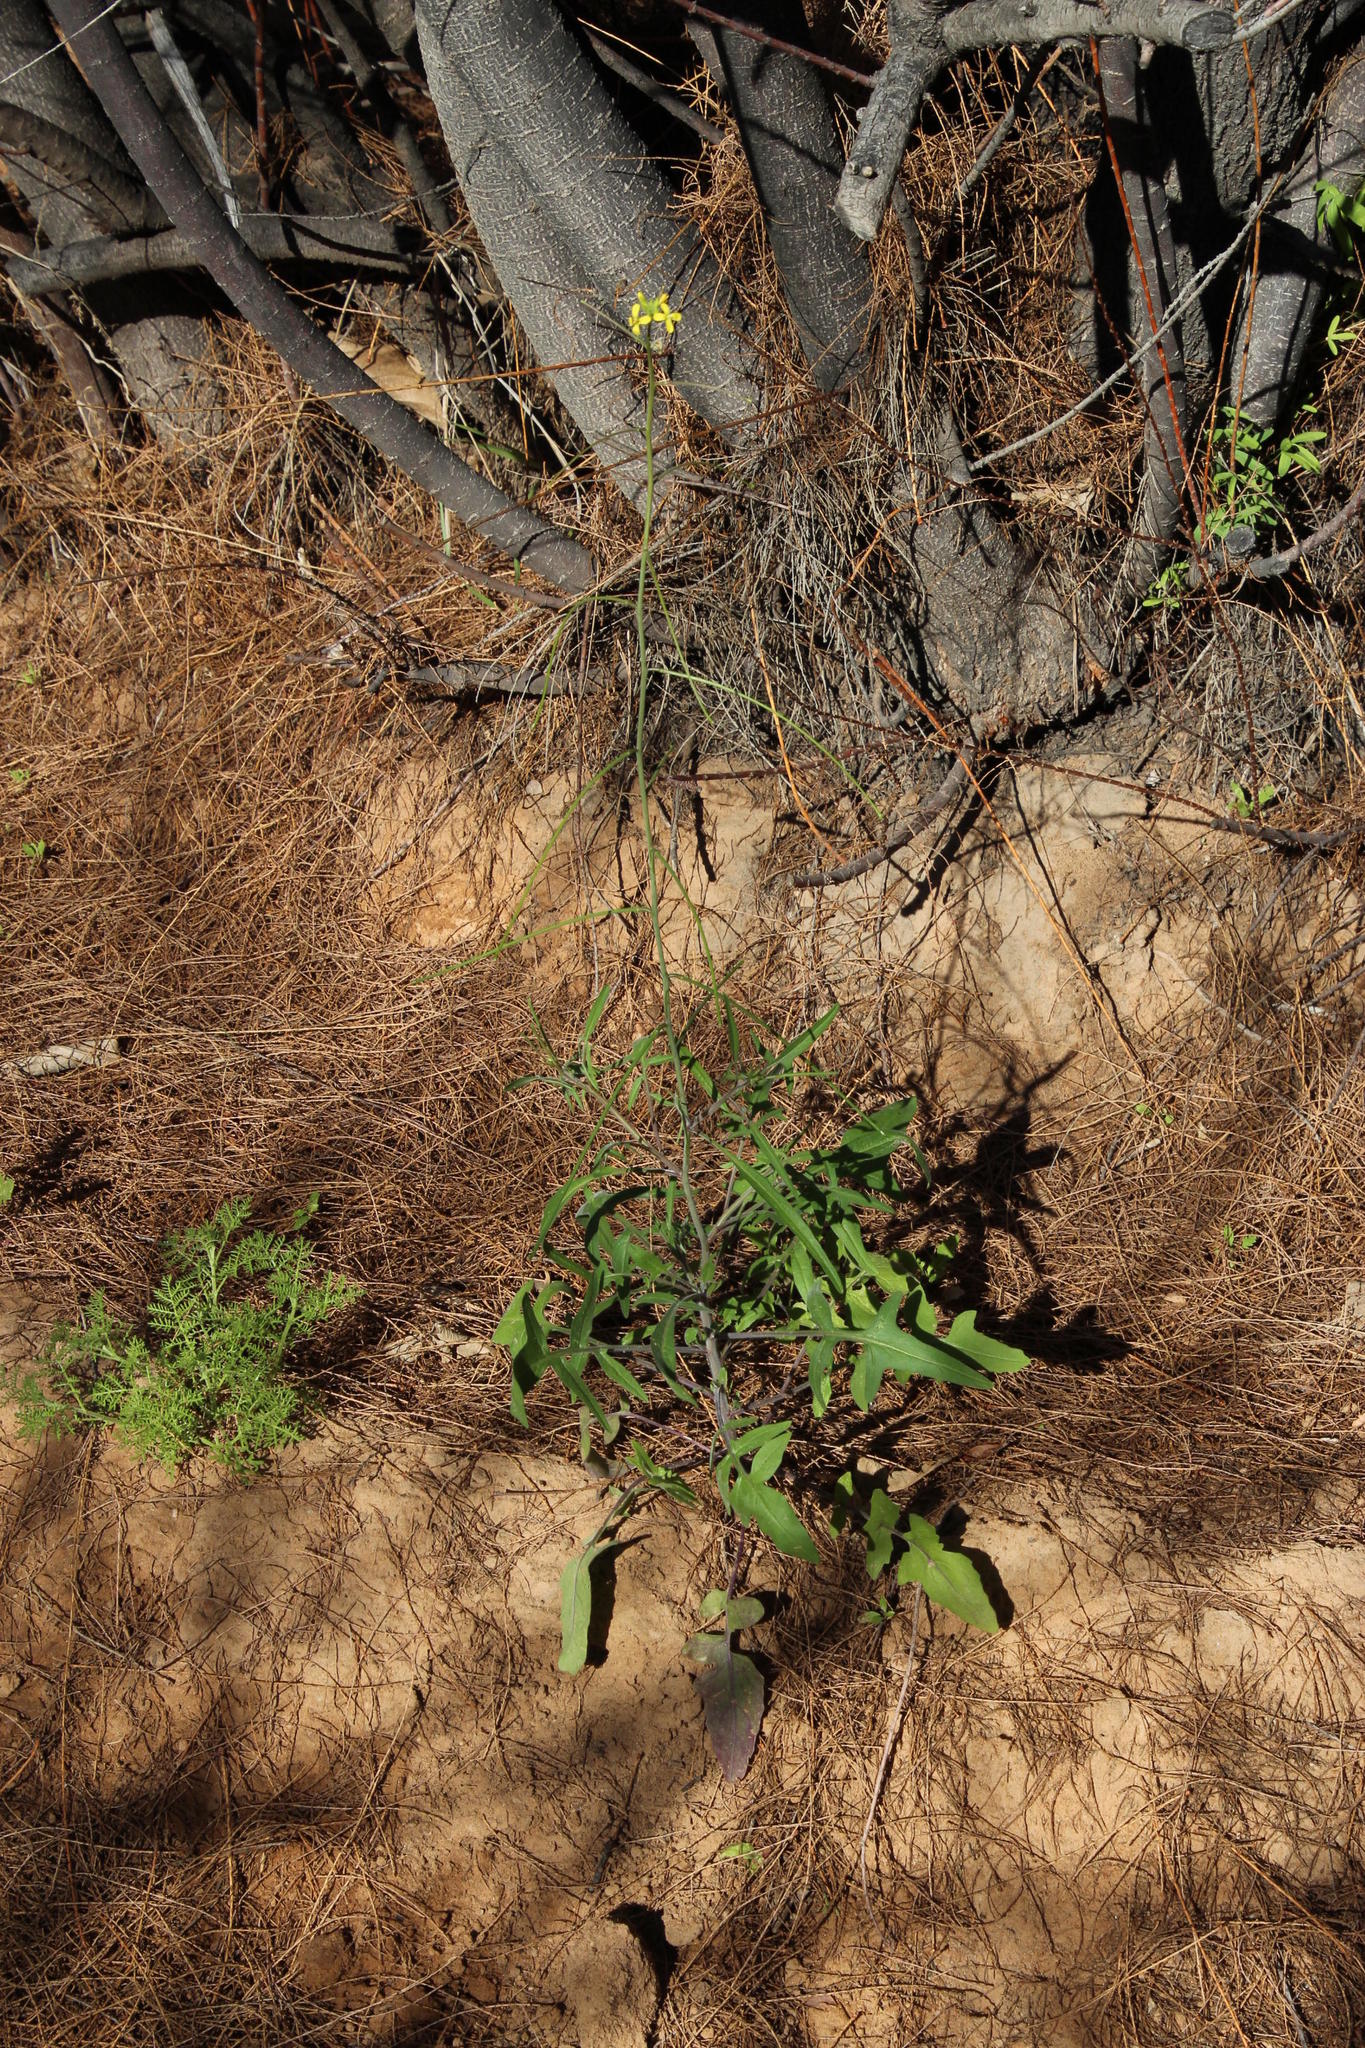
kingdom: Plantae
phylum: Tracheophyta
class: Magnoliopsida
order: Brassicales
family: Brassicaceae
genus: Sisymbrium
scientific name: Sisymbrium orientale
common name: Eastern rocket
